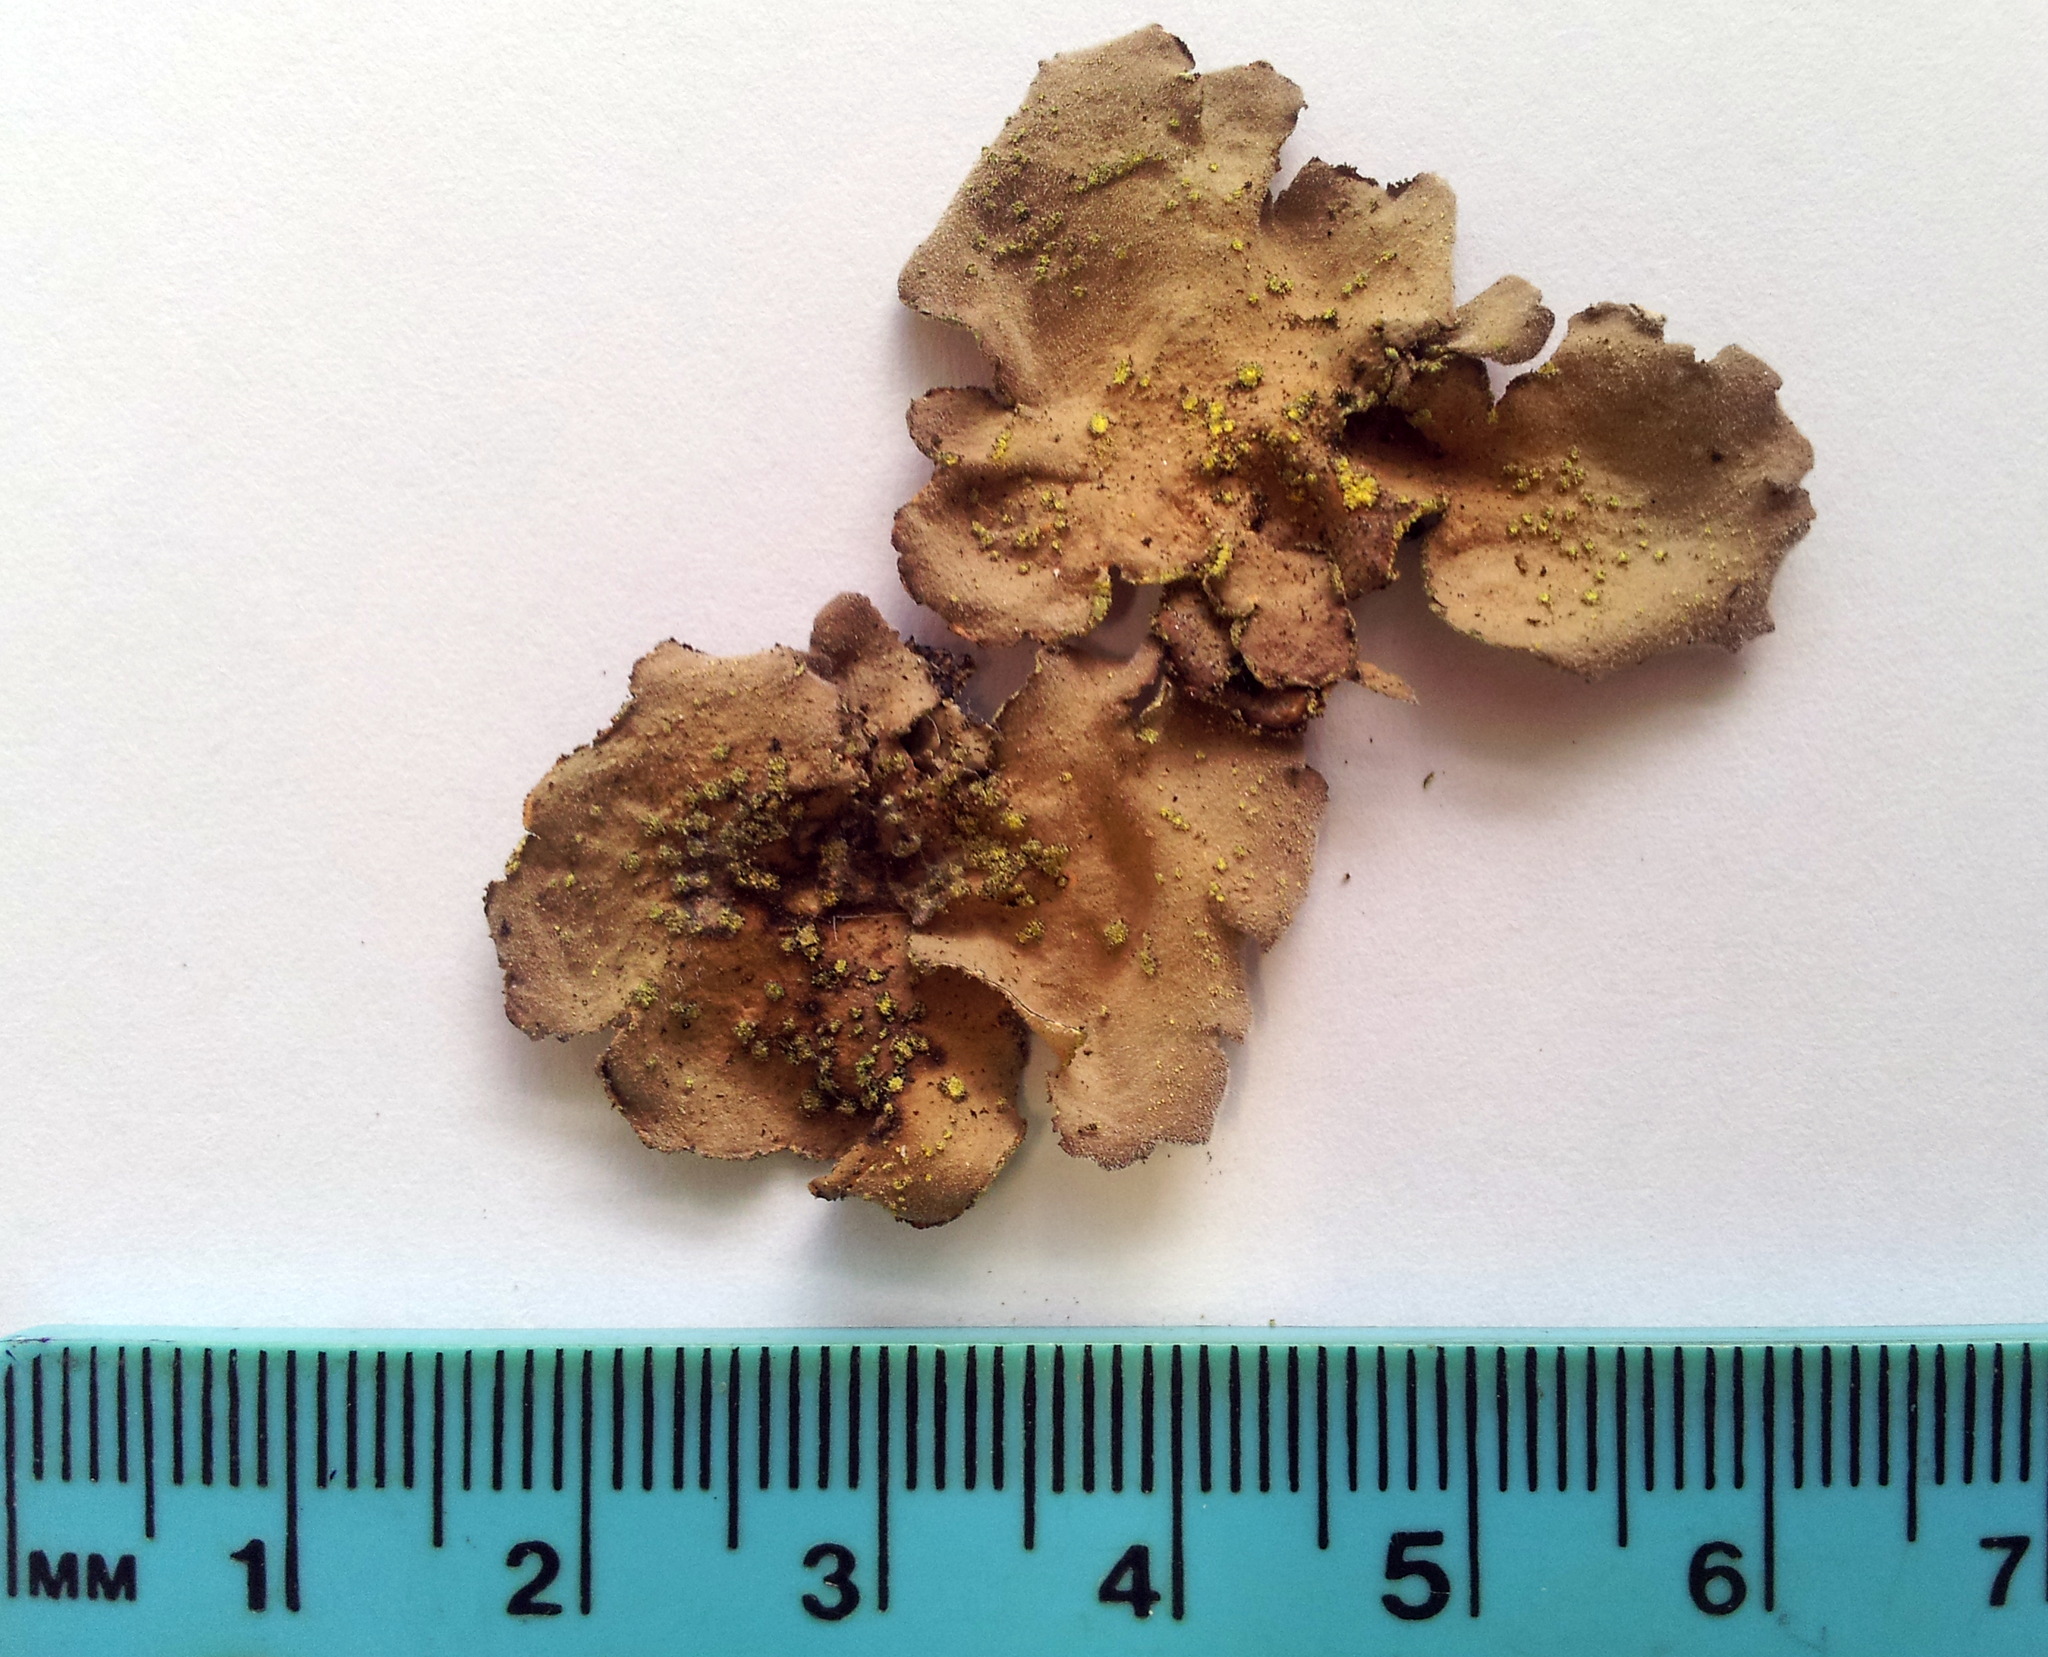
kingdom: Fungi
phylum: Ascomycota
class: Lecanoromycetes
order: Peltigerales
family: Lobariaceae
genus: Pseudocyphellaria
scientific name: Pseudocyphellaria mallota
